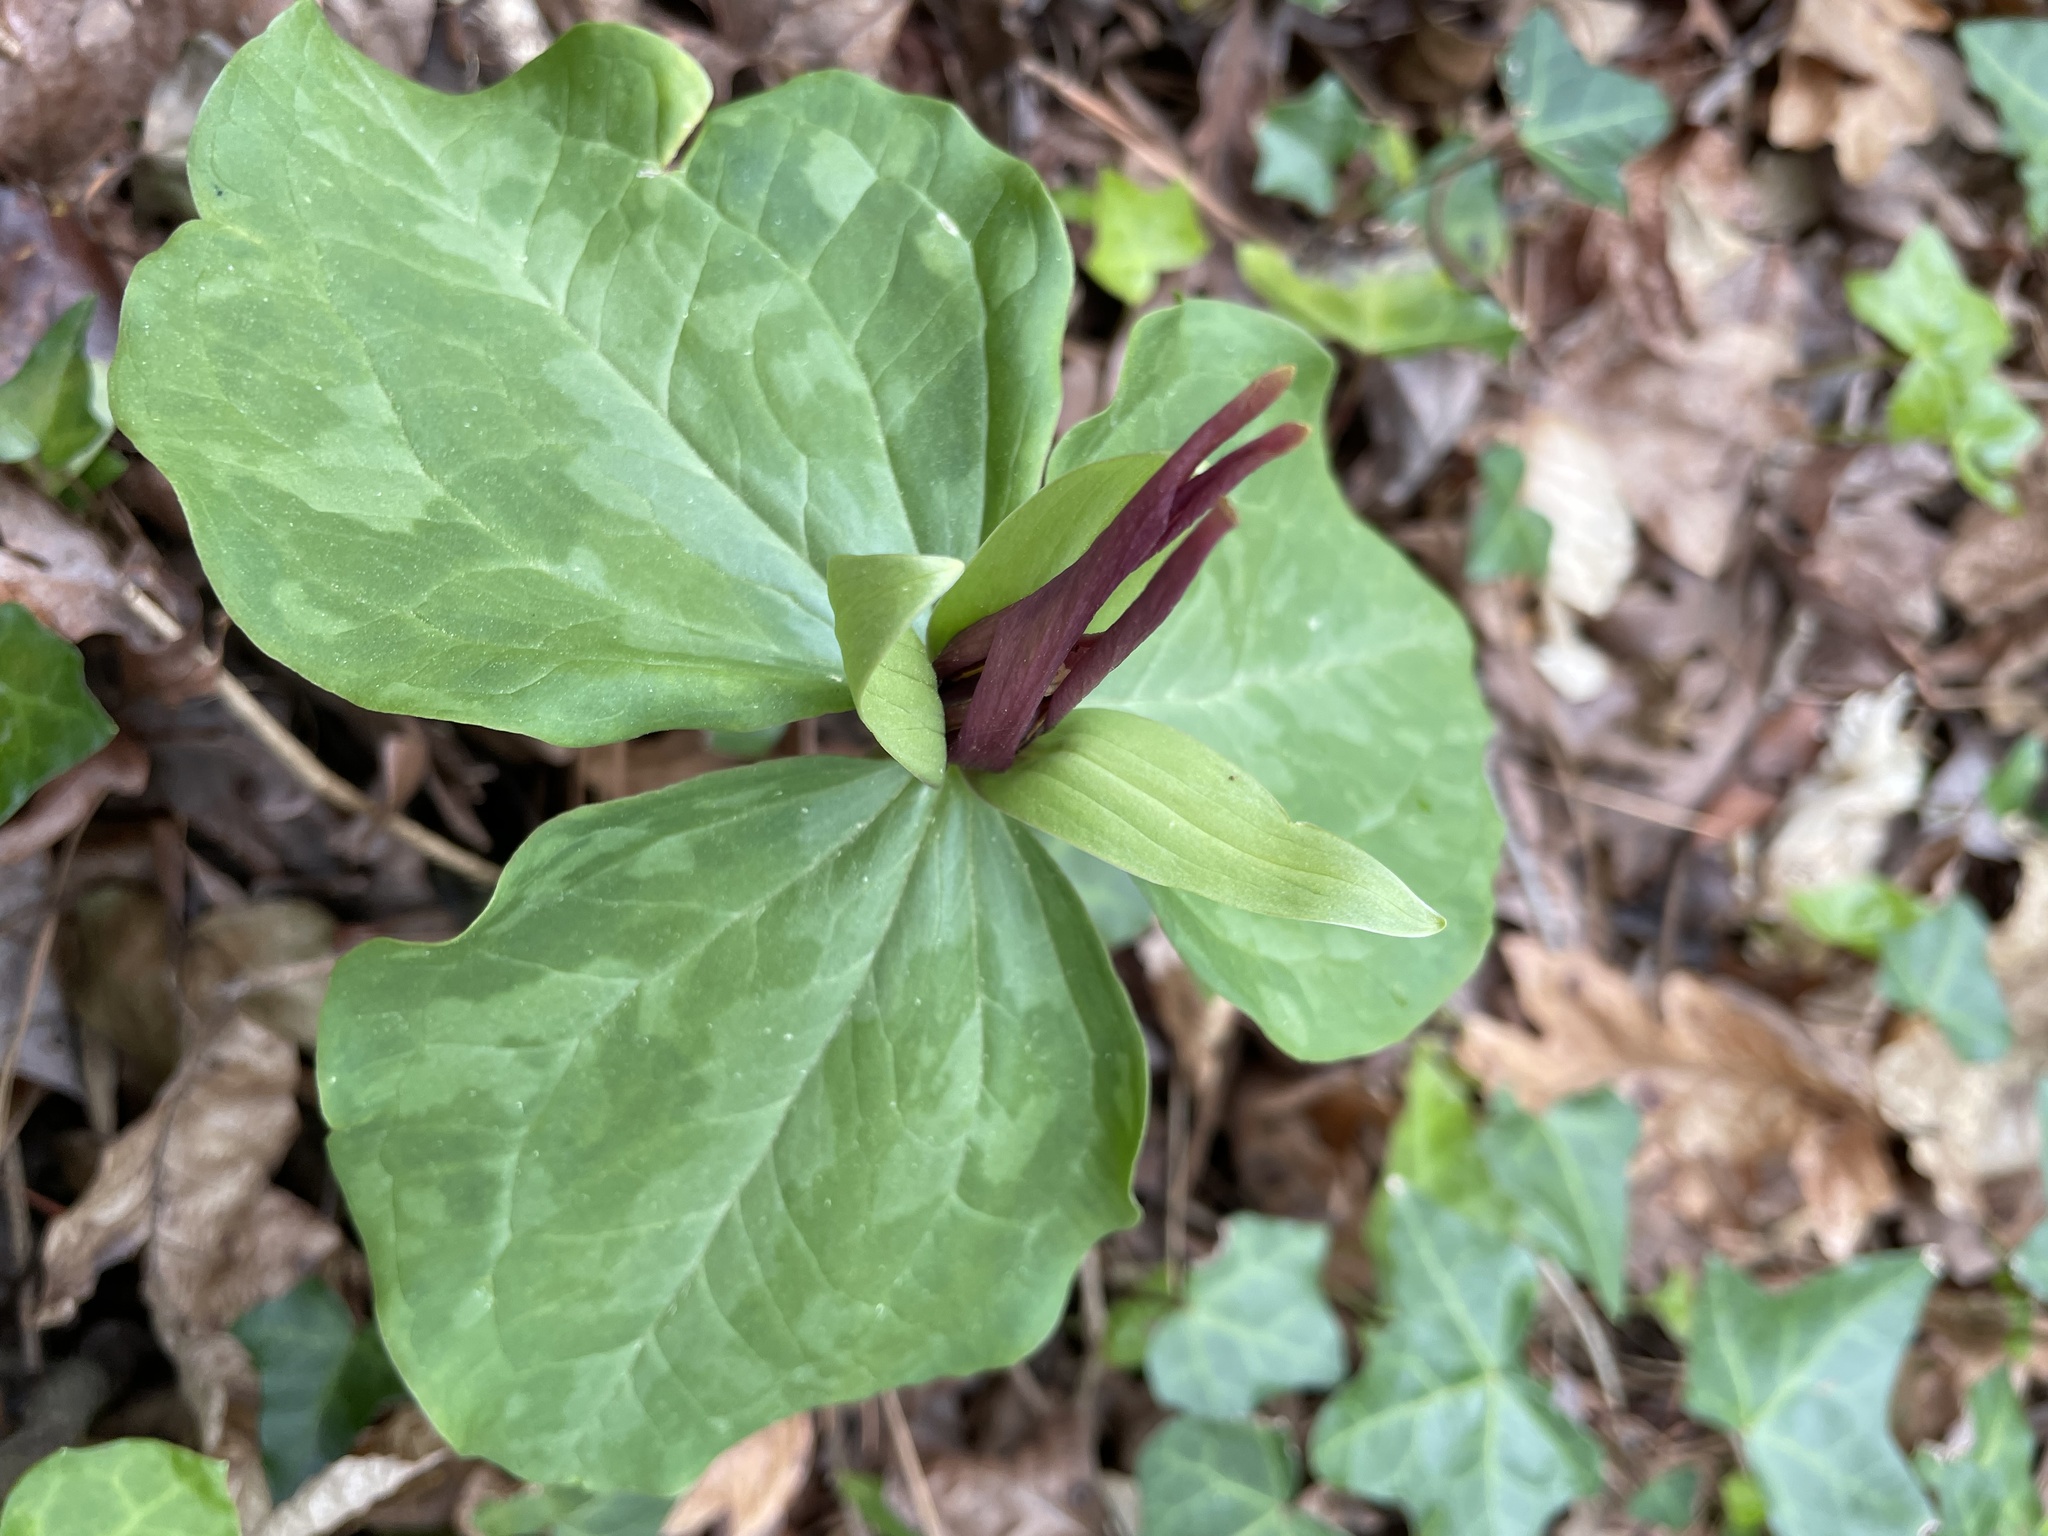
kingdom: Plantae
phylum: Tracheophyta
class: Liliopsida
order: Liliales
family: Melanthiaceae
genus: Trillium
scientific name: Trillium cuneatum
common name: Cuneate trillium
